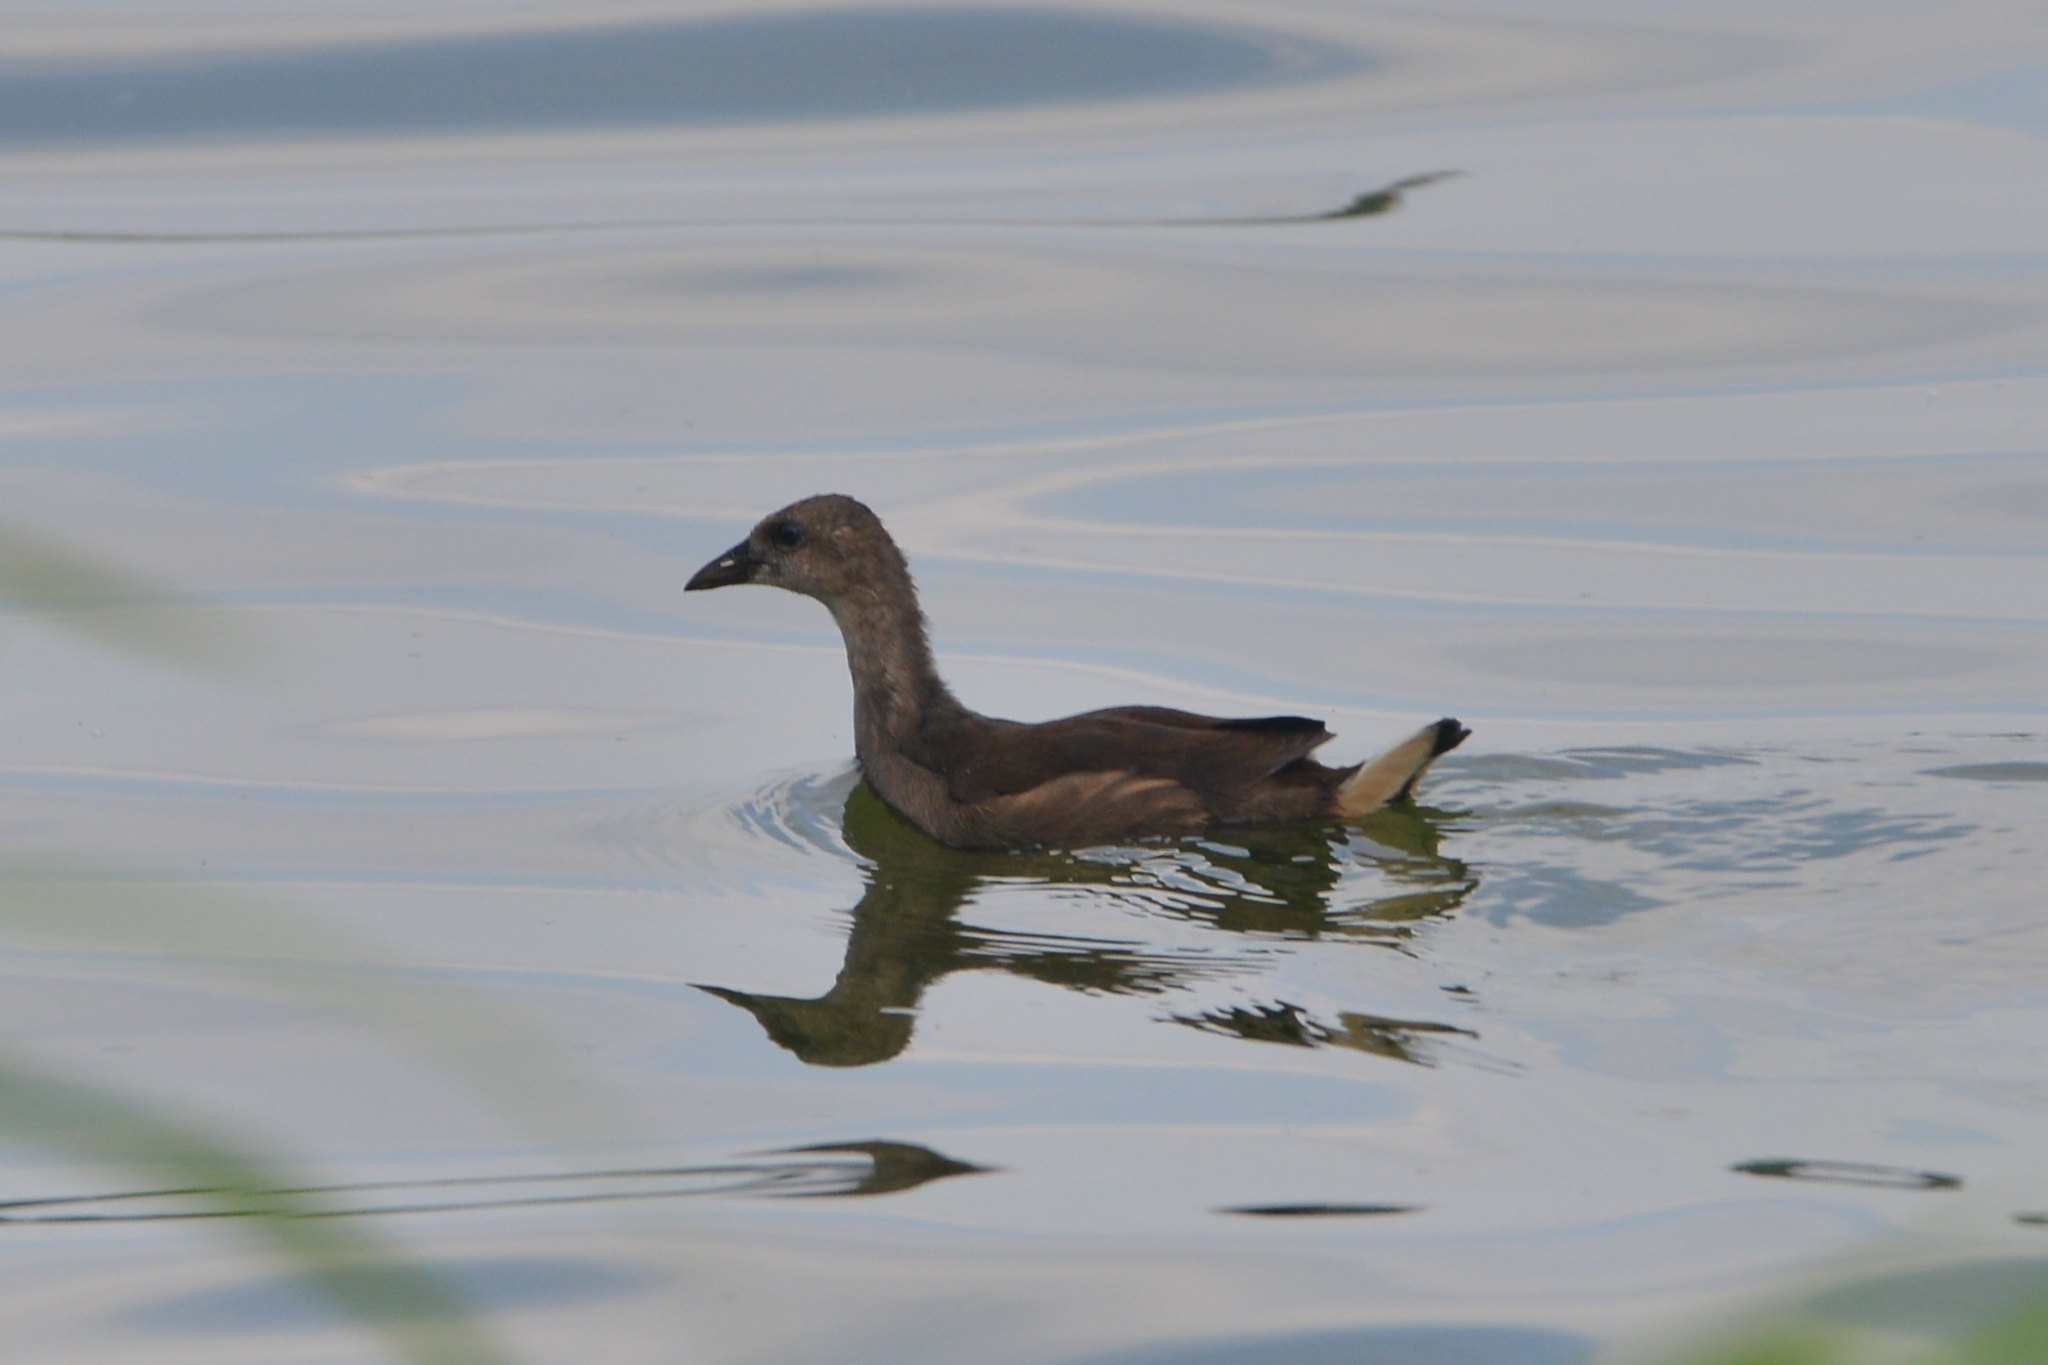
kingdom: Animalia
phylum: Chordata
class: Aves
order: Gruiformes
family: Rallidae
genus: Gallinula
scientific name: Gallinula chloropus
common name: Common moorhen
